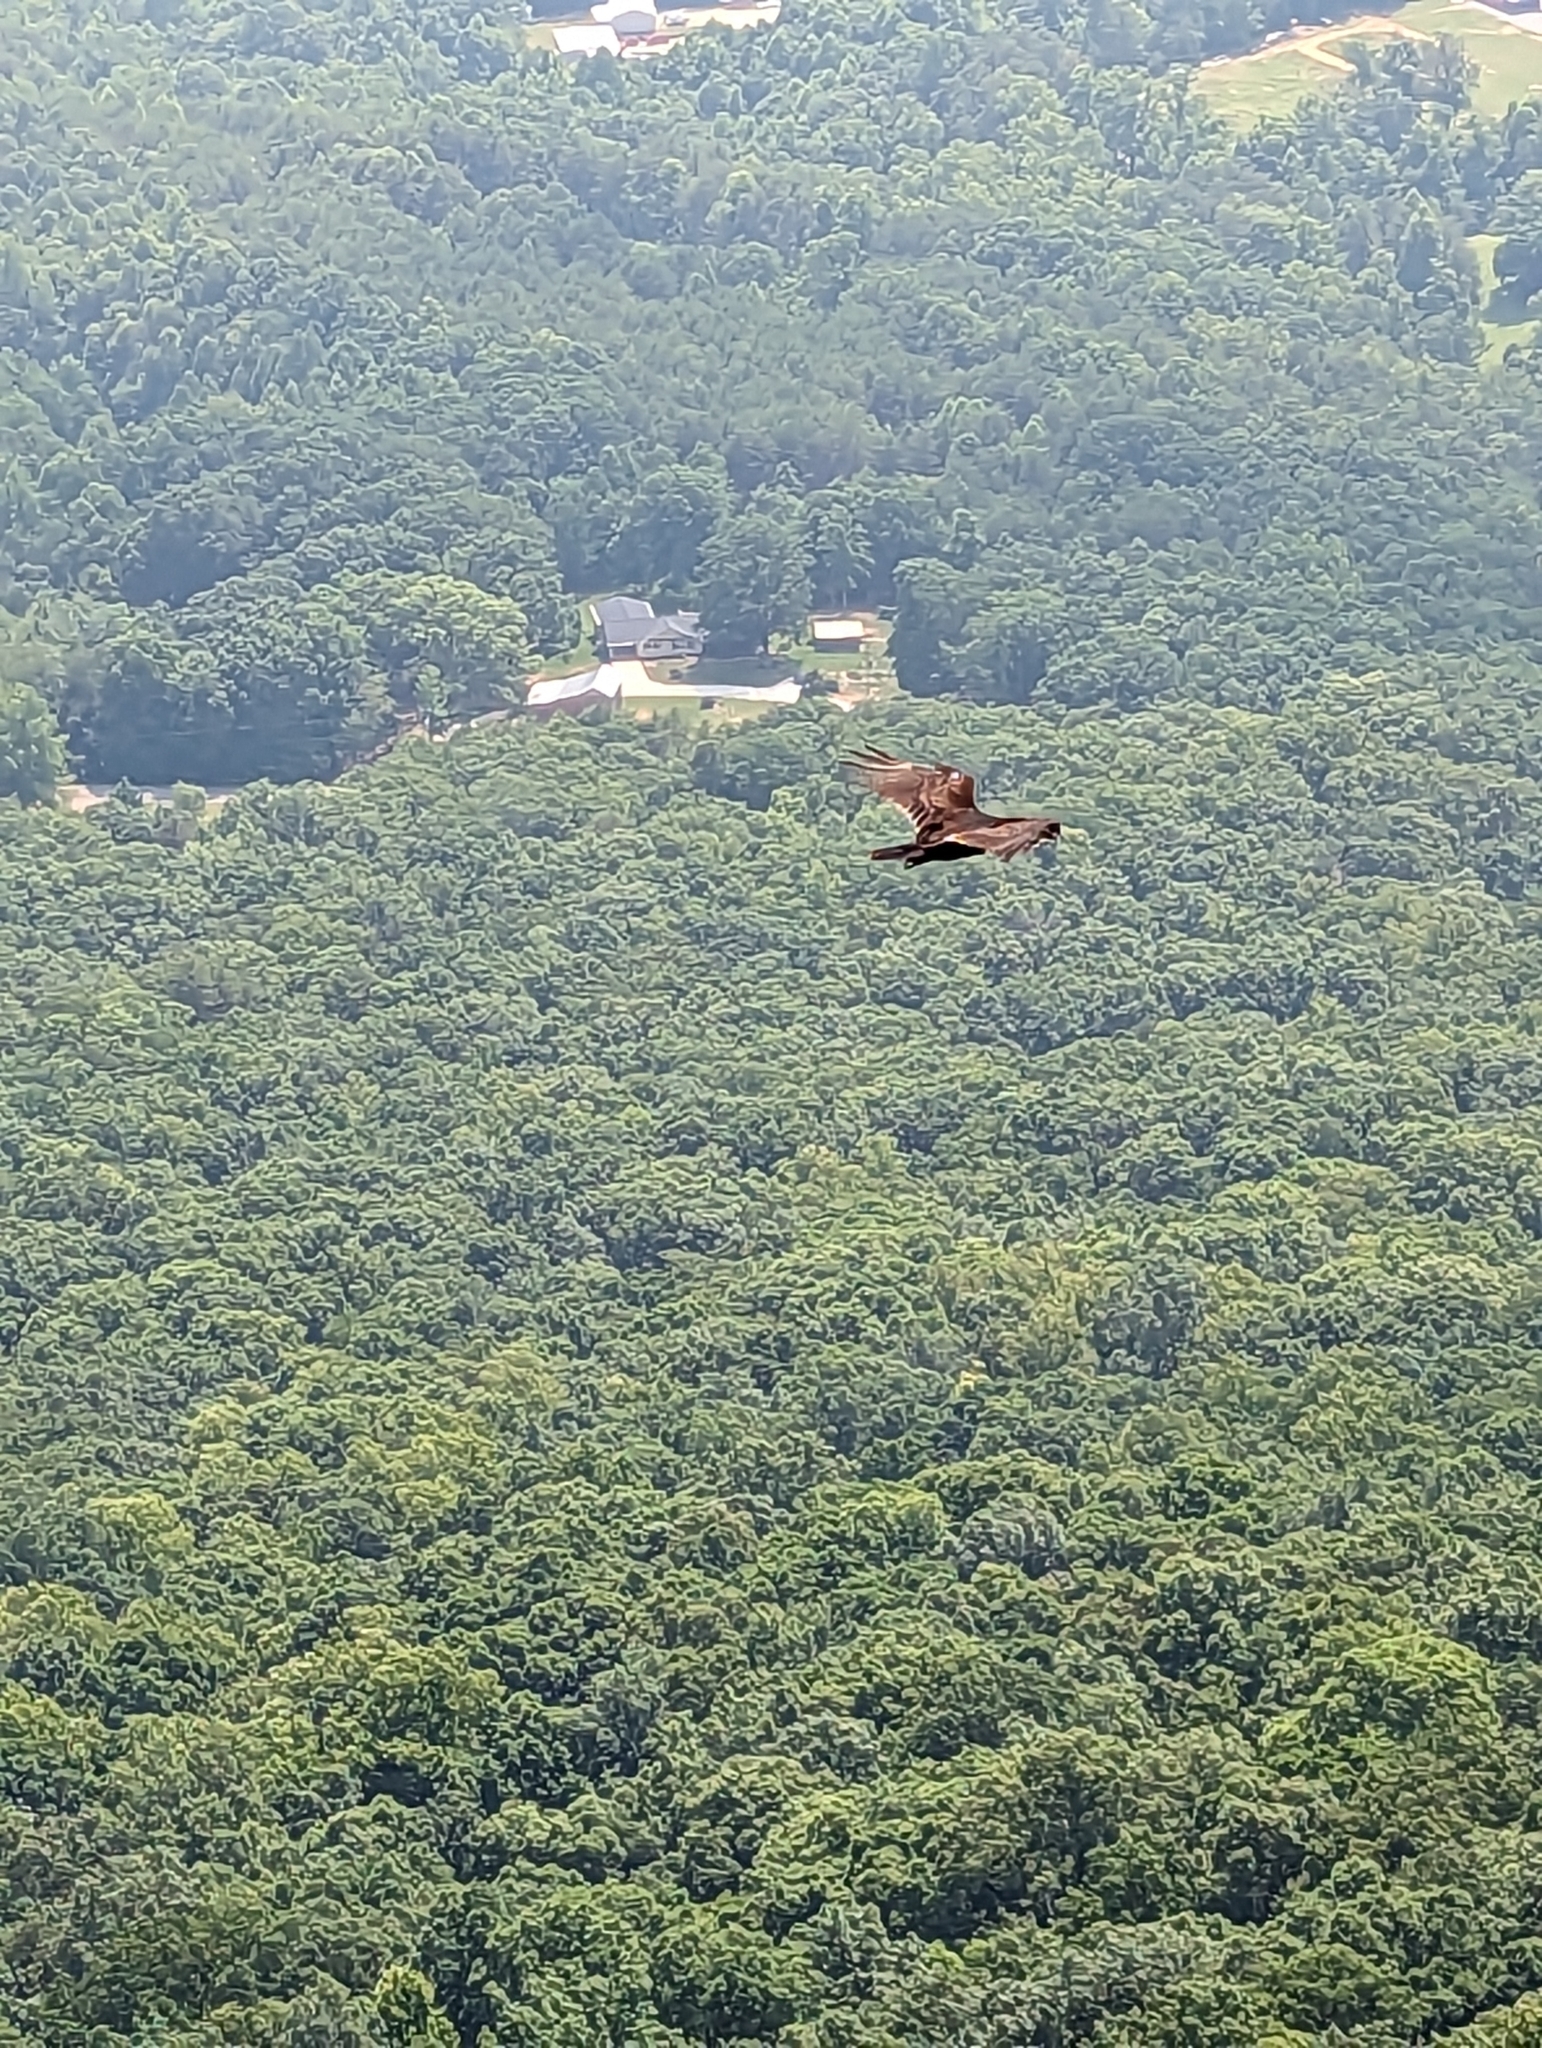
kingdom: Animalia
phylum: Chordata
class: Aves
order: Accipitriformes
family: Cathartidae
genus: Cathartes
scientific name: Cathartes aura
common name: Turkey vulture
